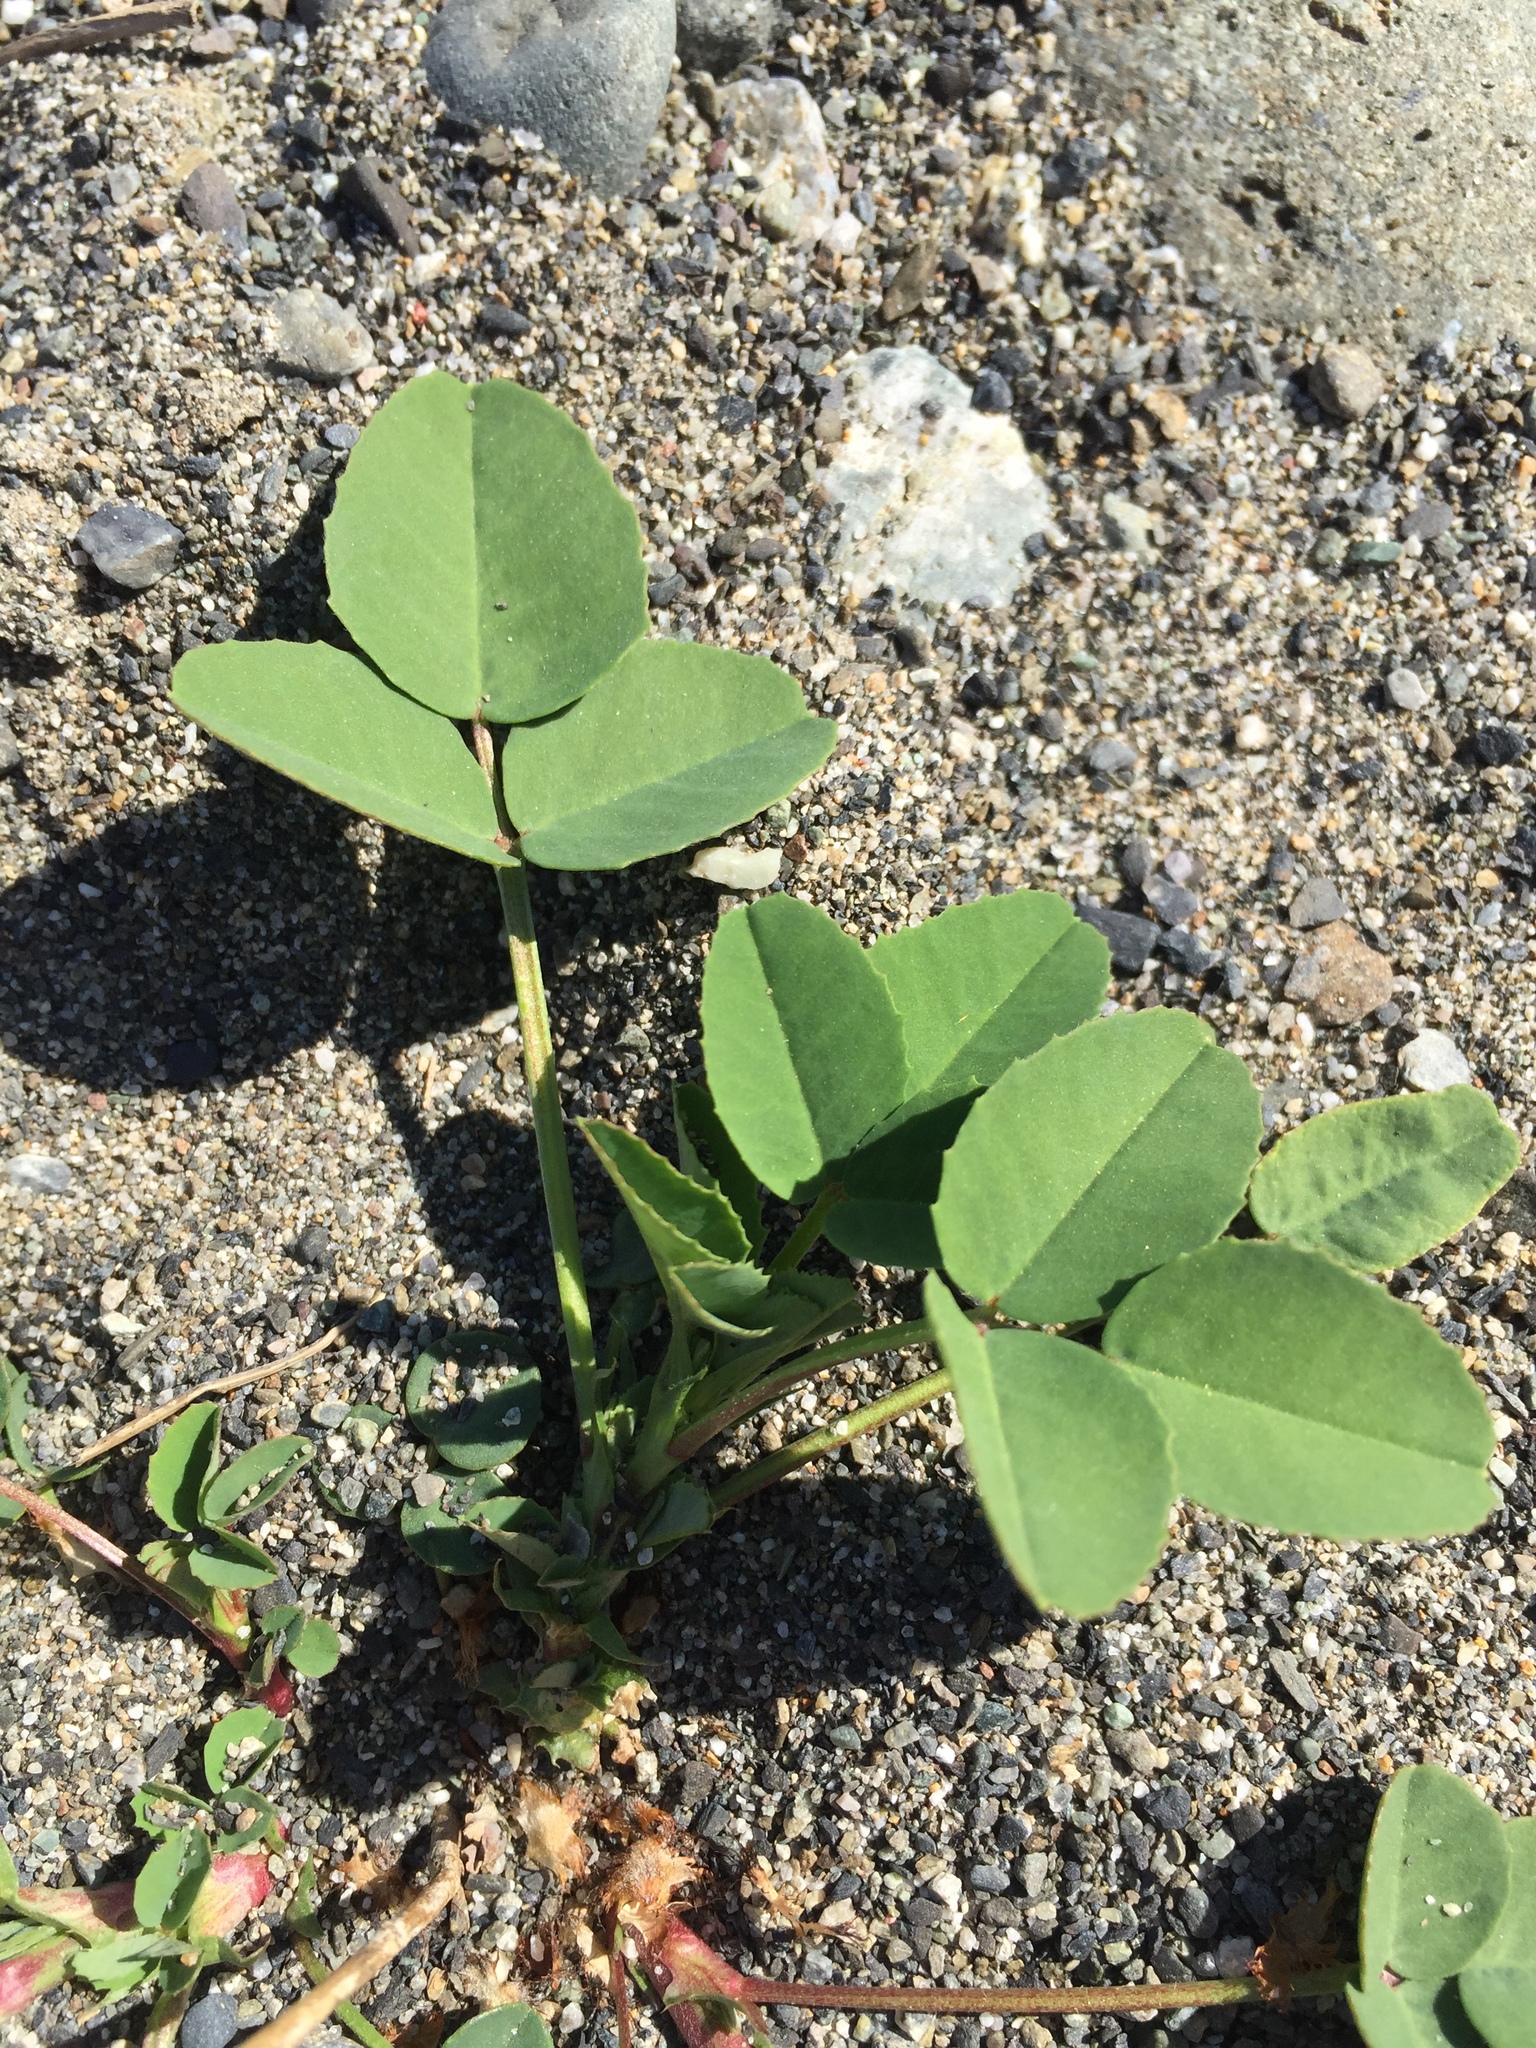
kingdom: Plantae
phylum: Tracheophyta
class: Magnoliopsida
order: Fabales
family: Fabaceae
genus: Melilotus
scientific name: Melilotus
